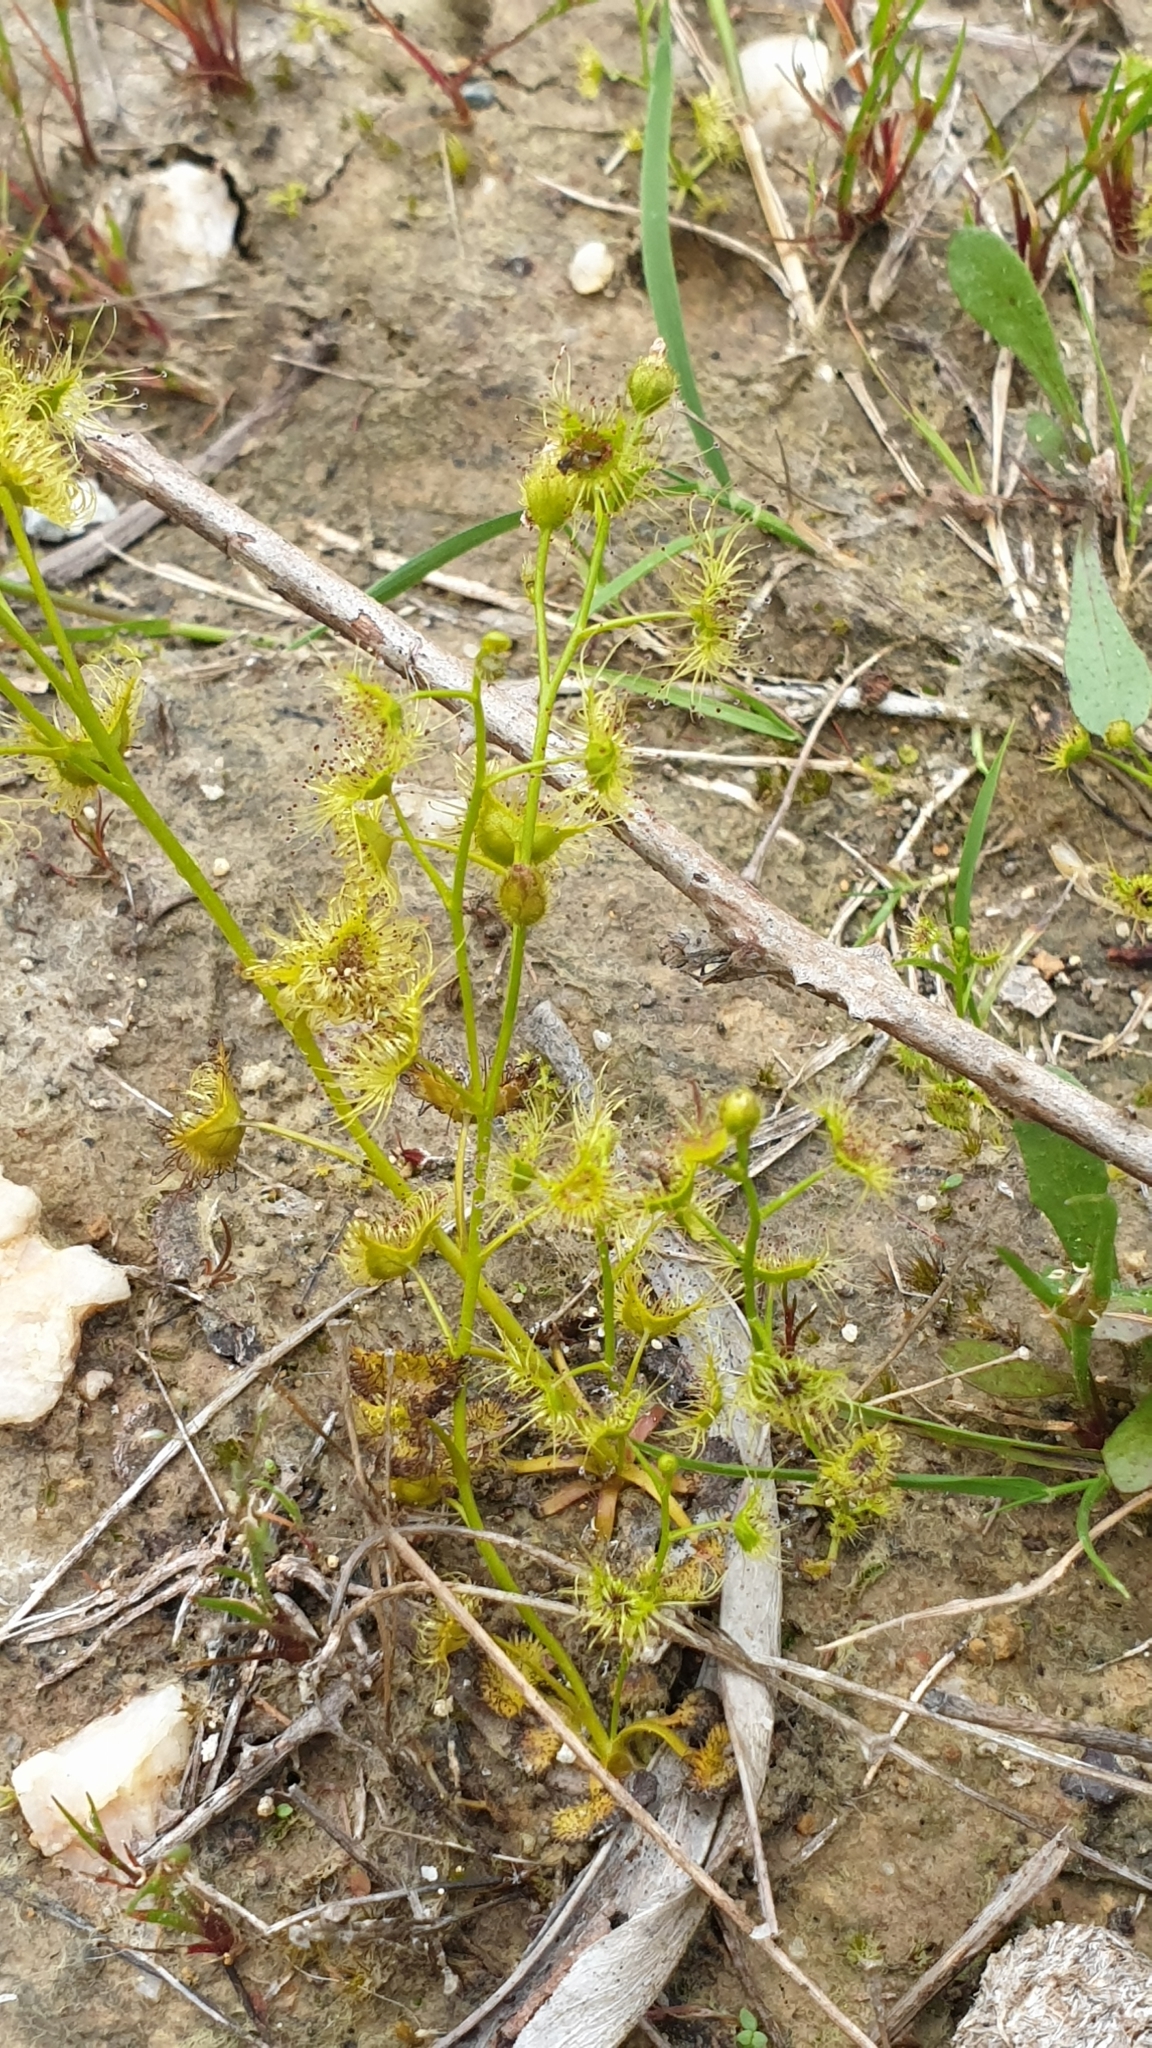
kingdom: Plantae
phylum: Tracheophyta
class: Magnoliopsida
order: Caryophyllales
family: Droseraceae
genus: Drosera
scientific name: Drosera hookeri
